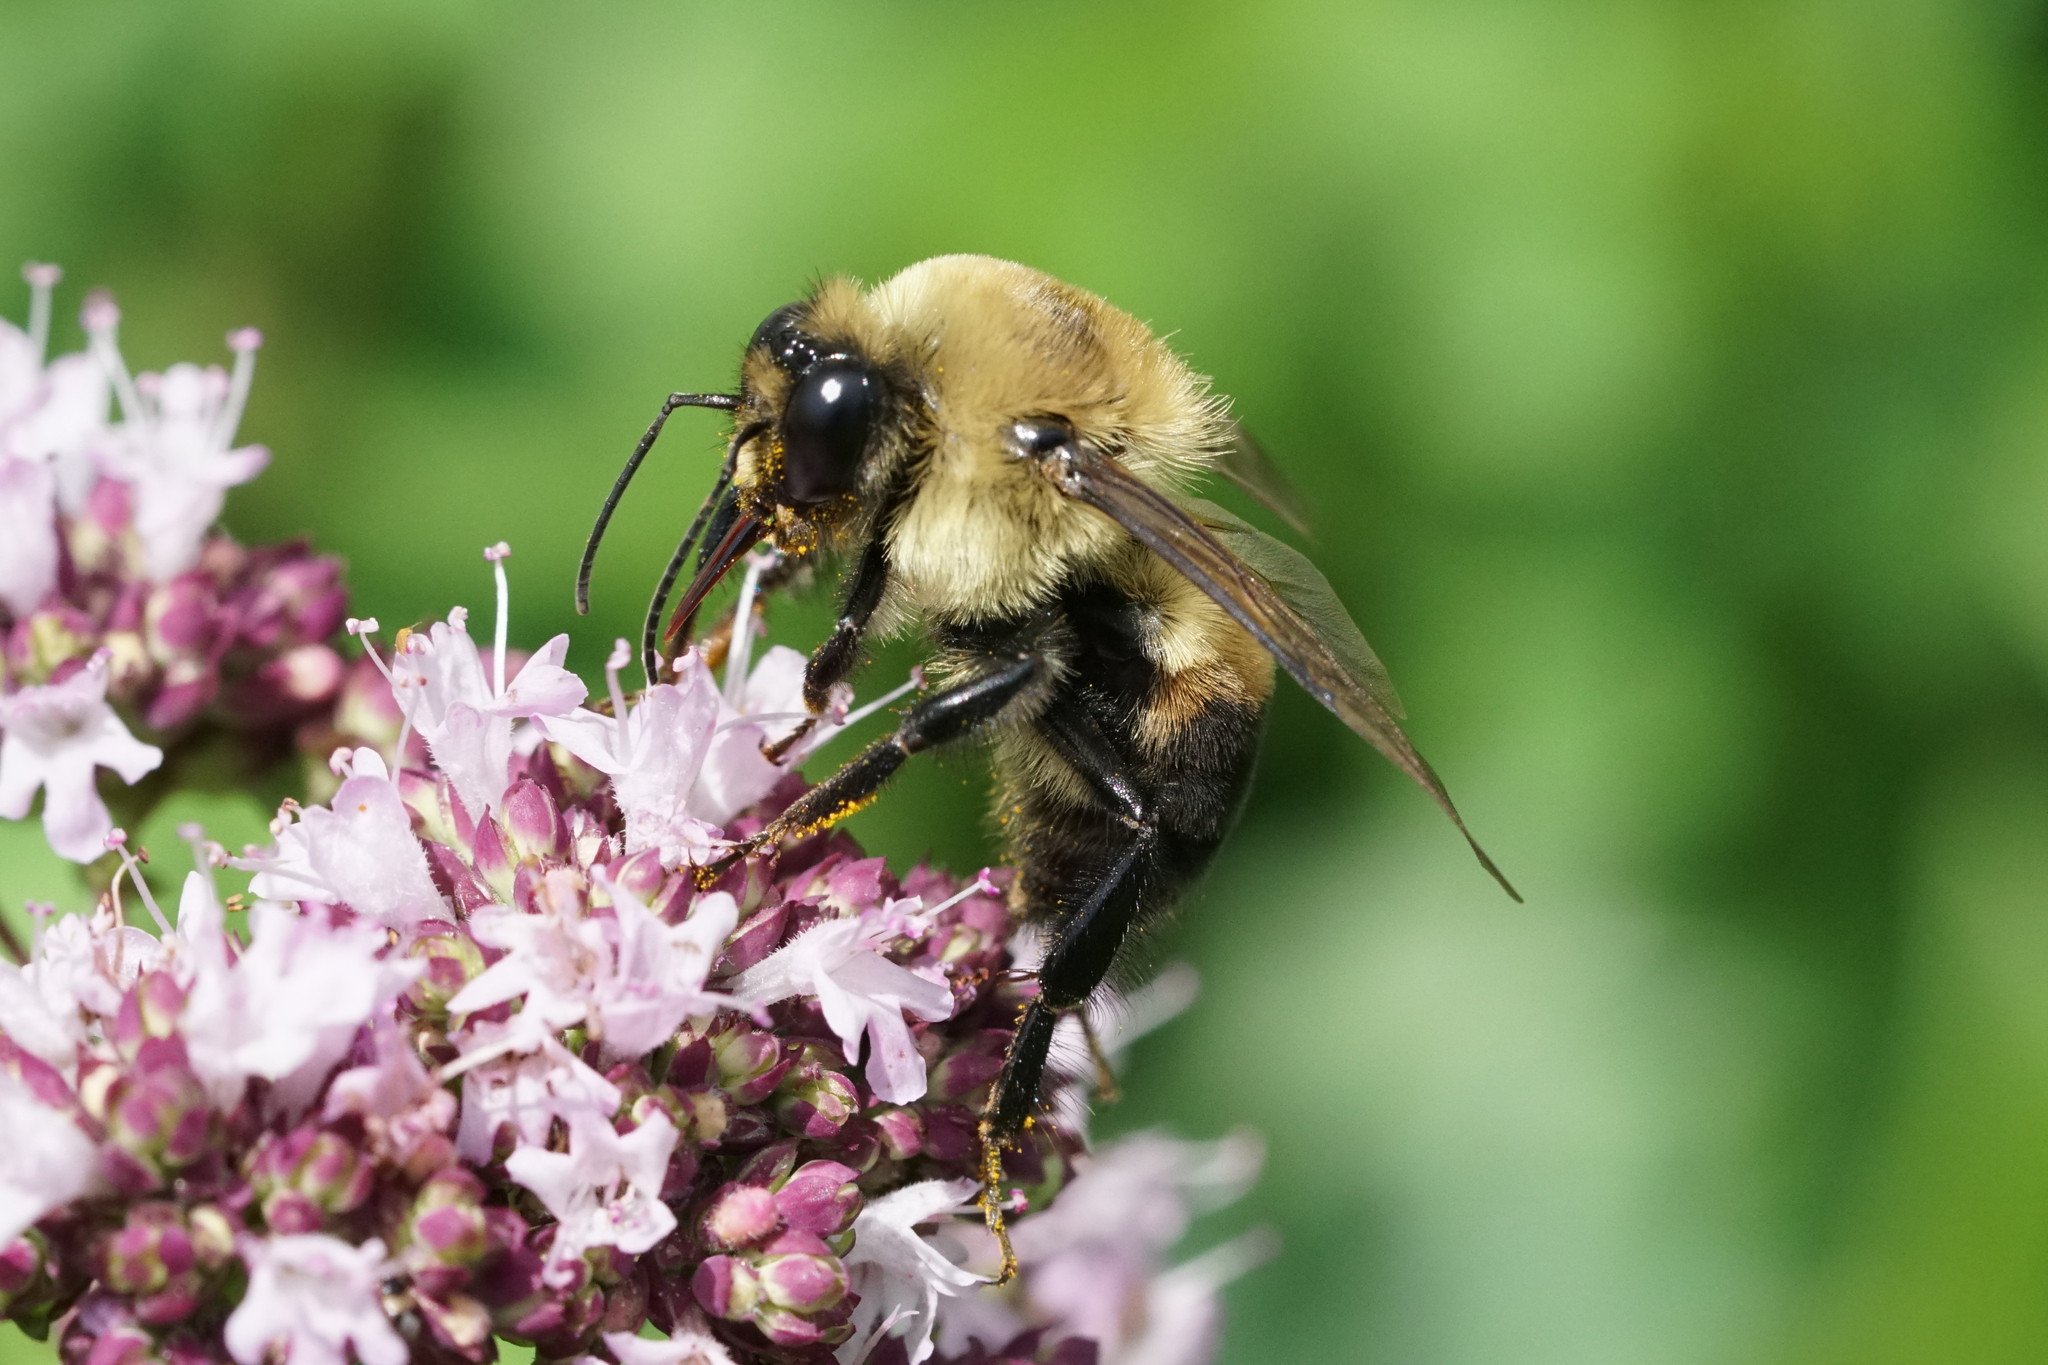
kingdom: Animalia
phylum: Arthropoda
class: Insecta
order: Hymenoptera
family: Apidae
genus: Bombus
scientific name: Bombus griseocollis
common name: Brown-belted bumble bee
